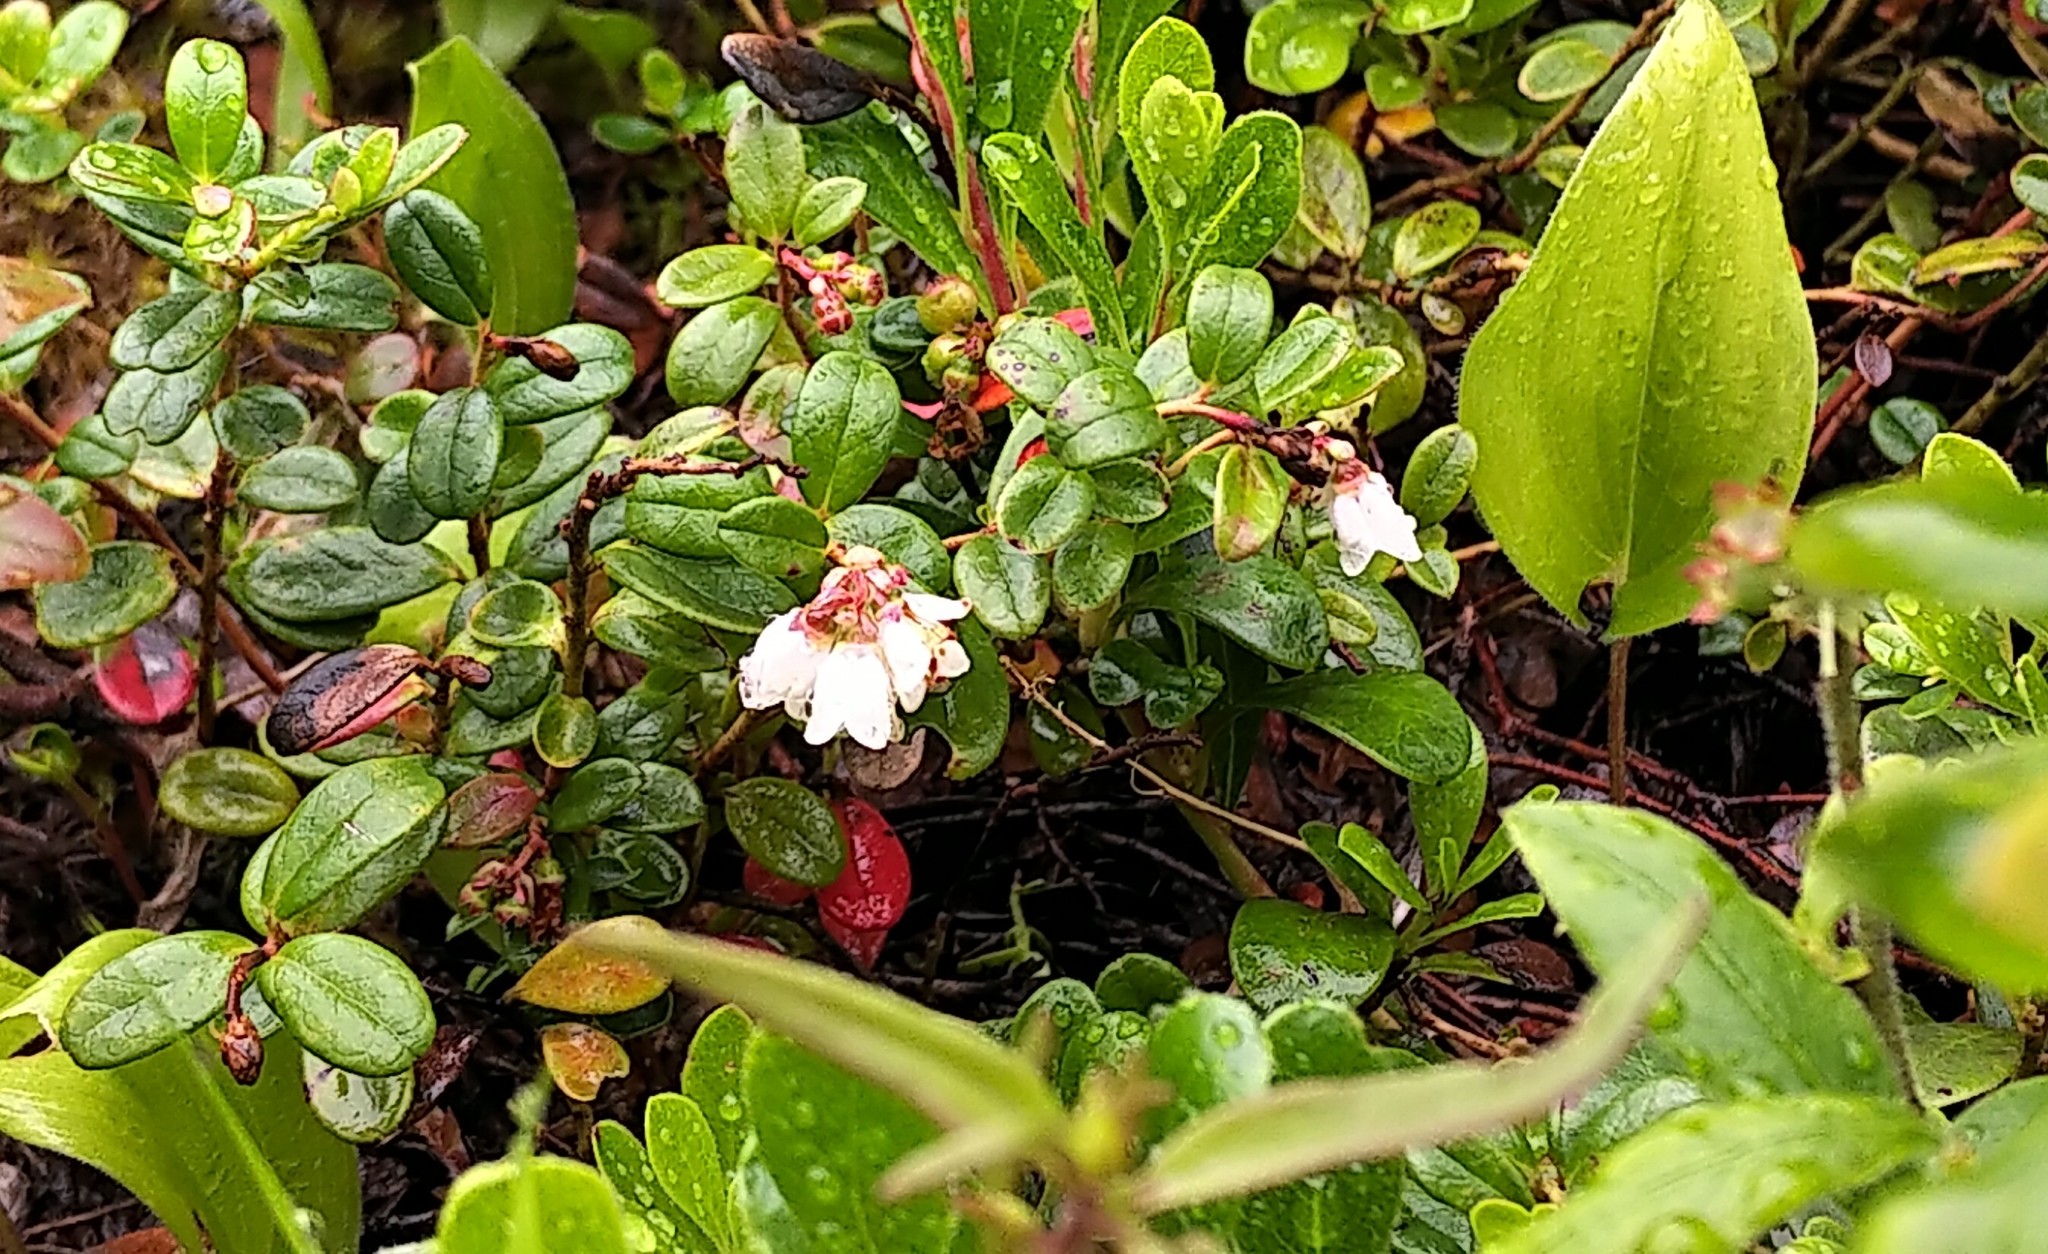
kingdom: Plantae
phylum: Tracheophyta
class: Magnoliopsida
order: Ericales
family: Ericaceae
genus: Vaccinium
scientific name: Vaccinium vitis-idaea
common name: Cowberry
